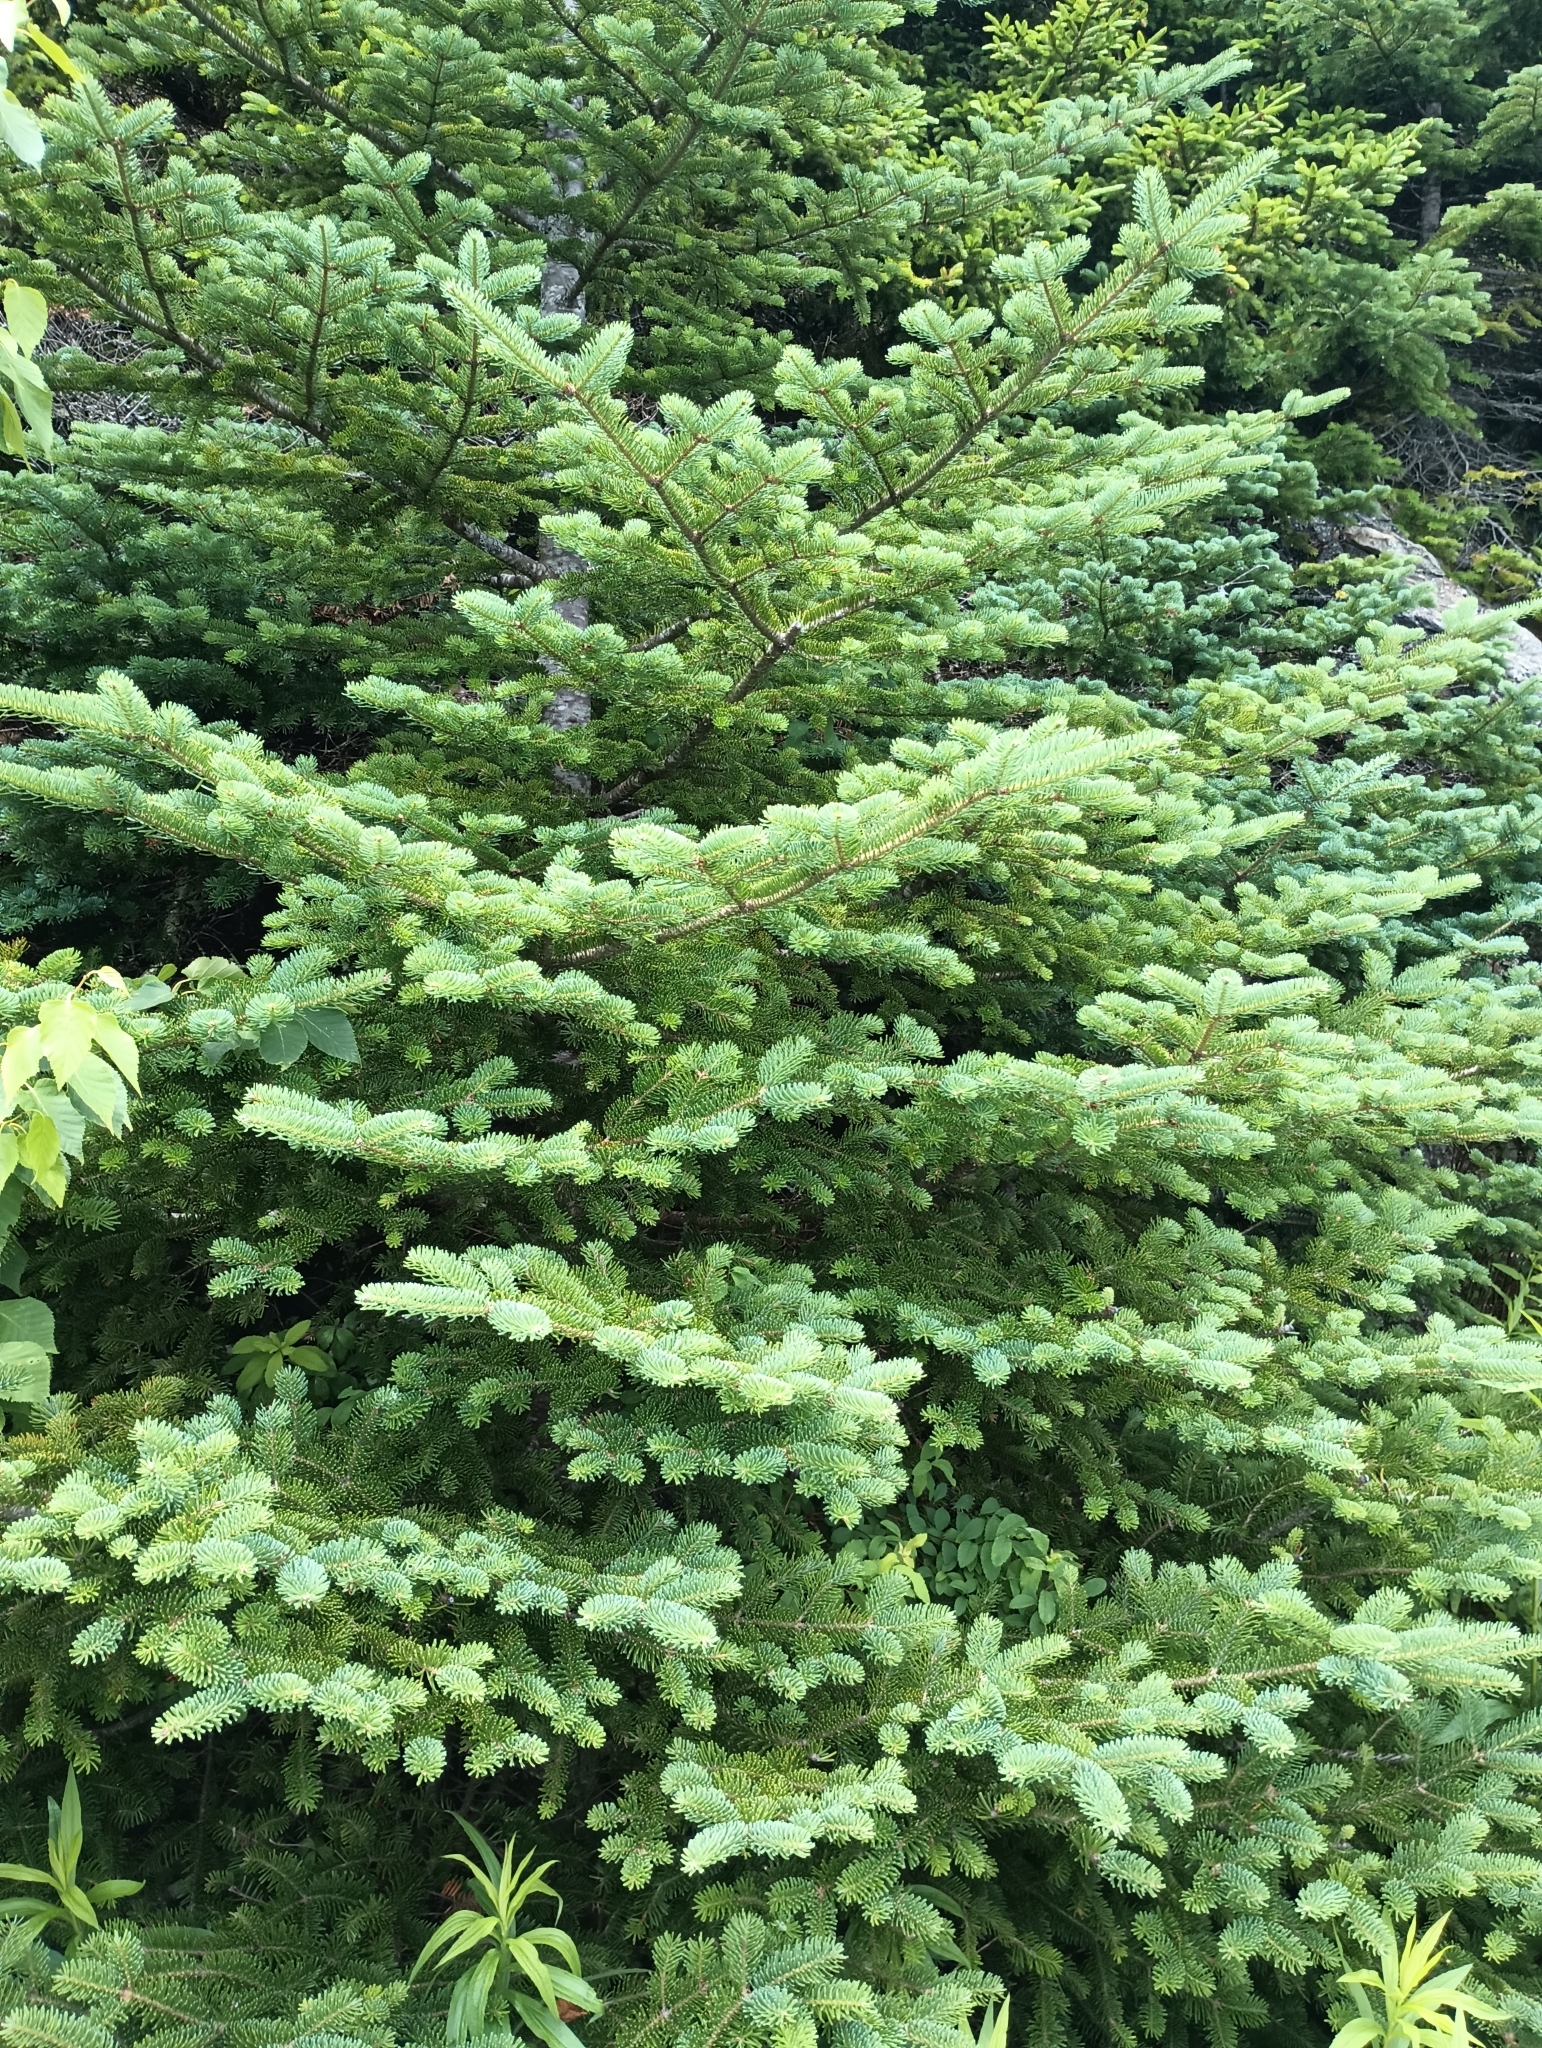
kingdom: Plantae
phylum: Tracheophyta
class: Pinopsida
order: Pinales
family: Pinaceae
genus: Abies
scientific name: Abies balsamea
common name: Balsam fir
